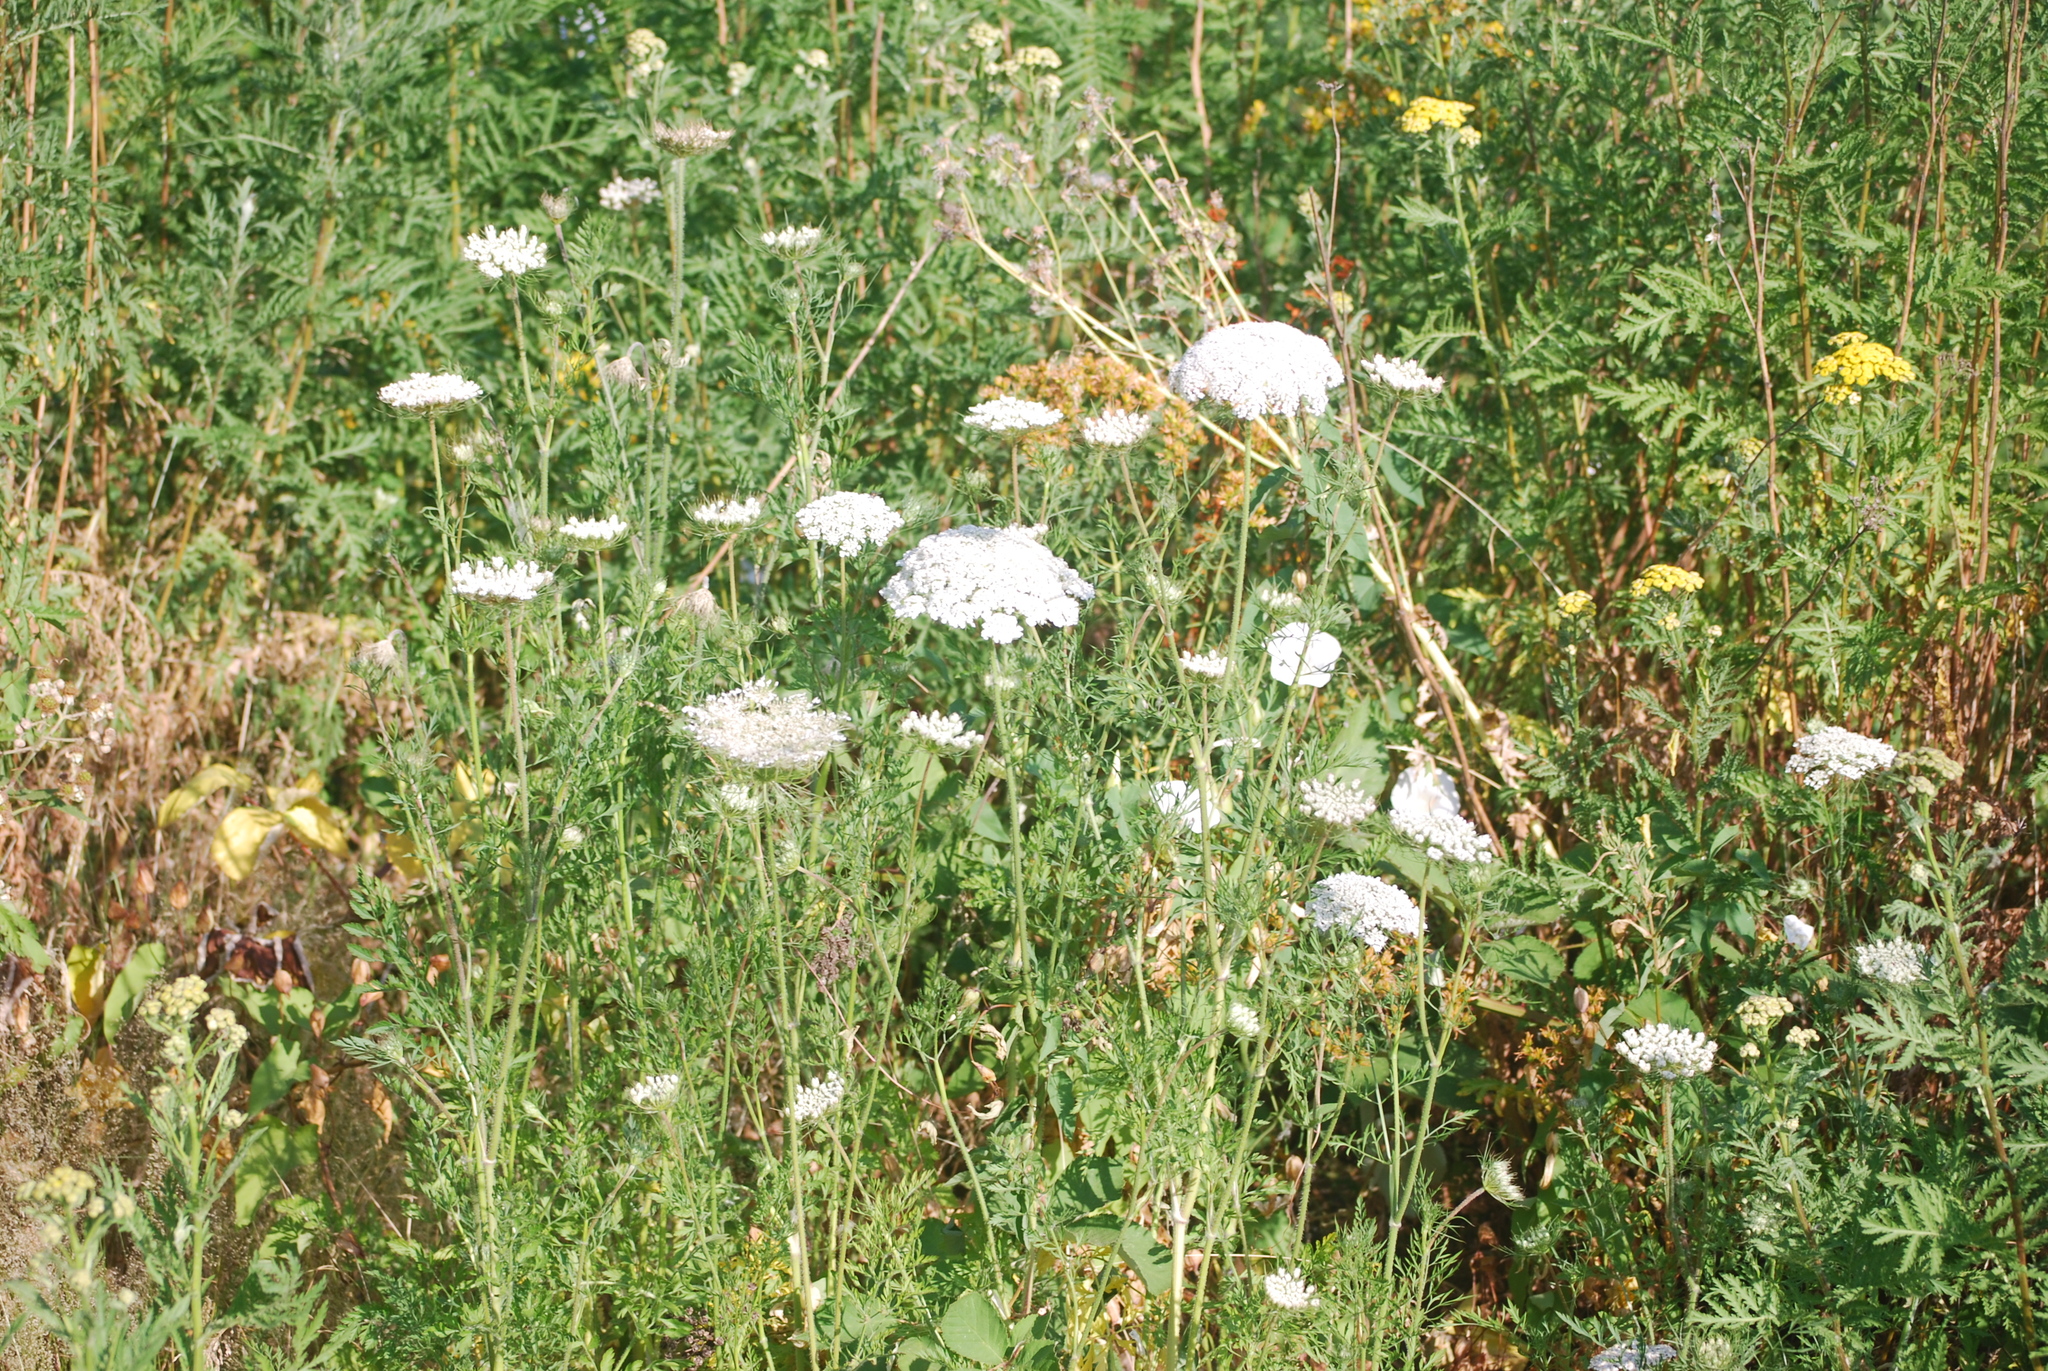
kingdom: Plantae
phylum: Tracheophyta
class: Magnoliopsida
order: Apiales
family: Apiaceae
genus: Daucus
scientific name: Daucus carota
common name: Wild carrot
